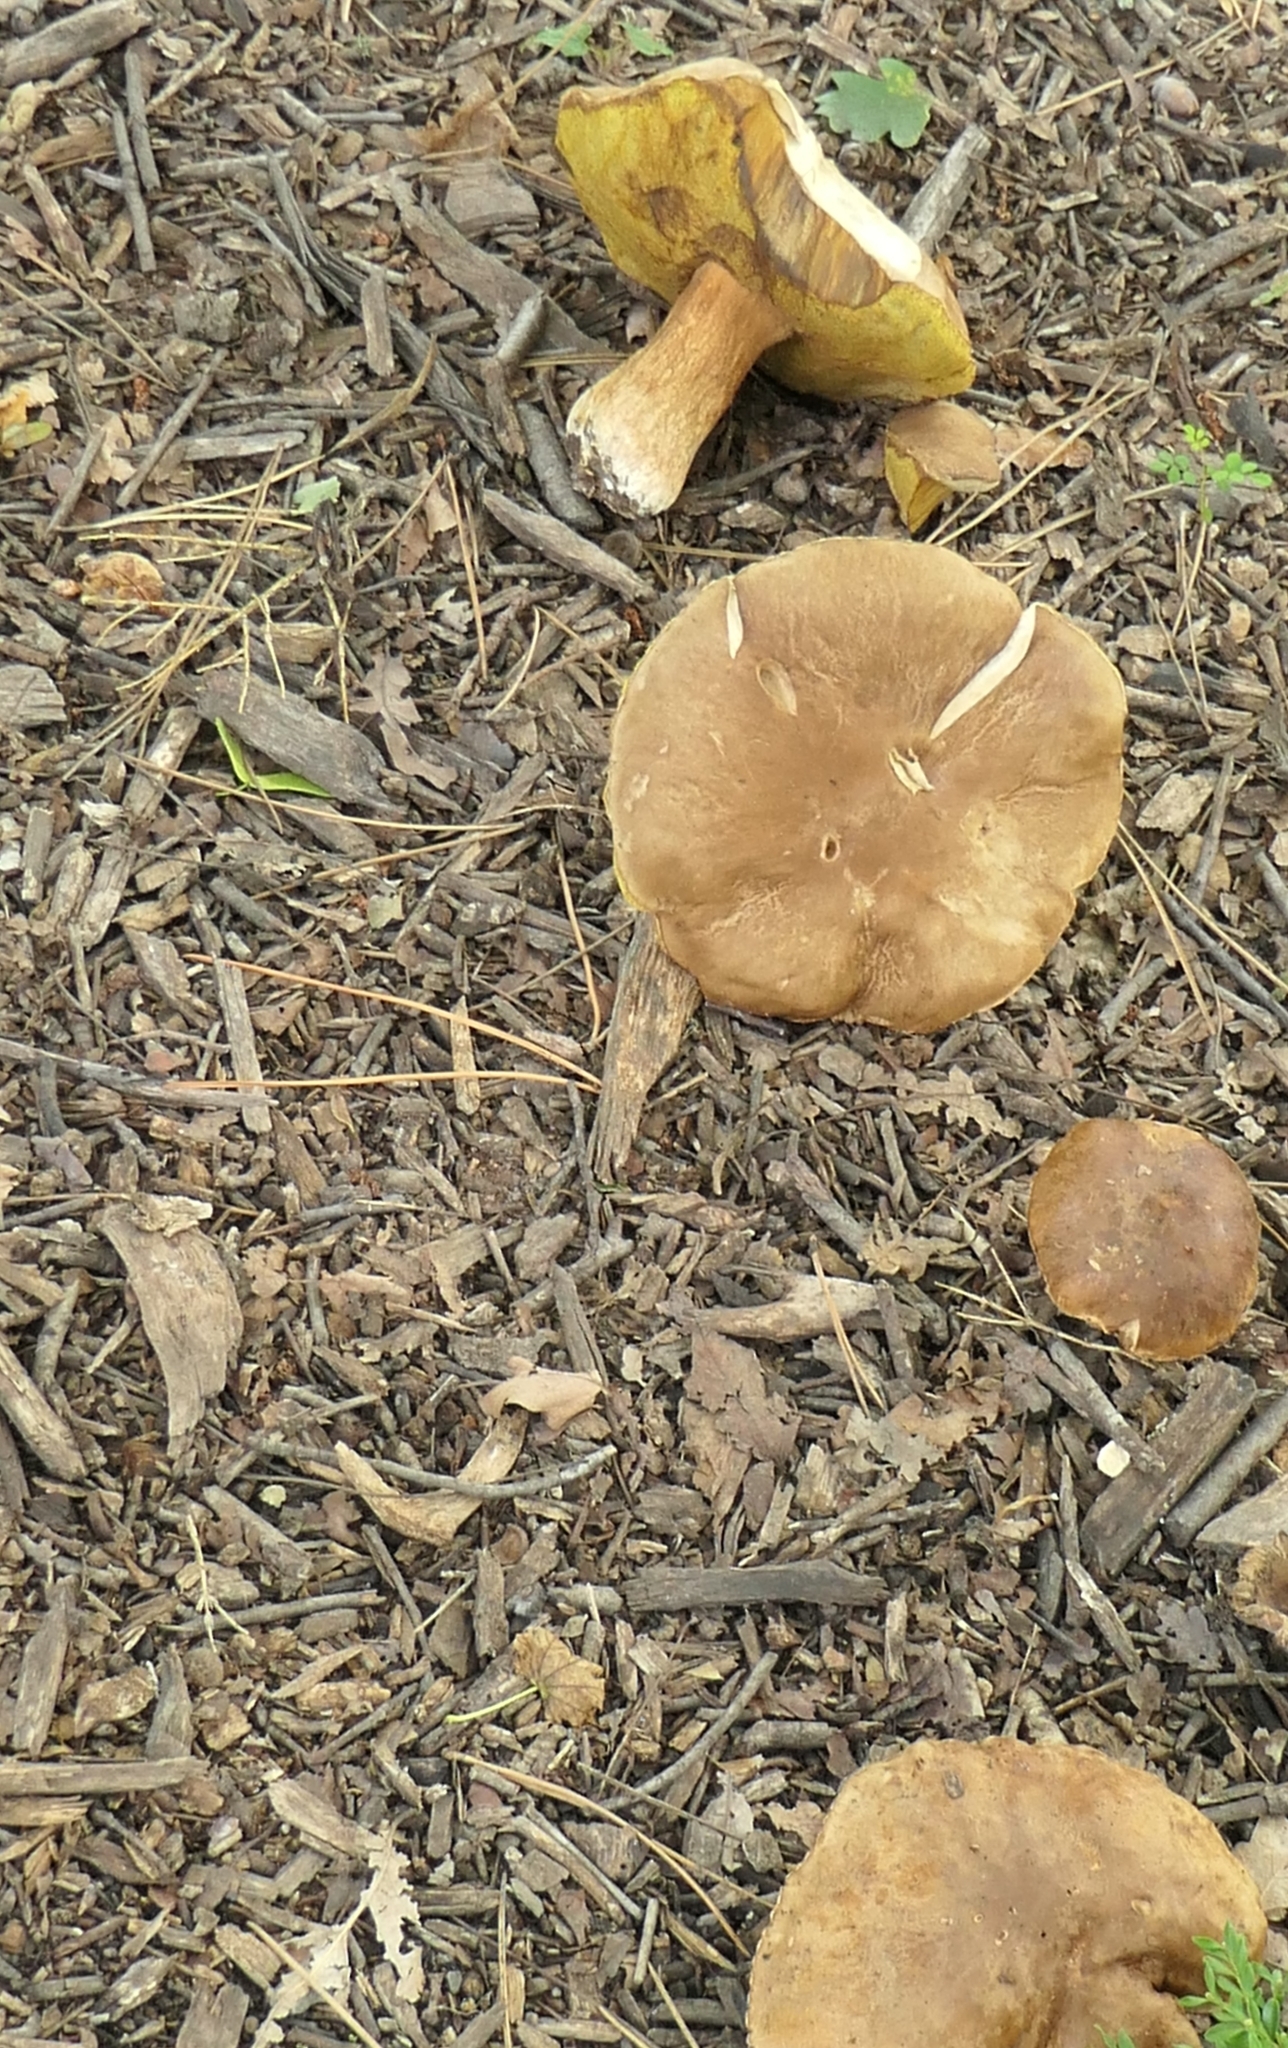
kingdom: Fungi
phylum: Basidiomycota
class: Agaricomycetes
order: Boletales
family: Boletaceae
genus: Boletus
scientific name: Boletus edulis
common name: Cep
